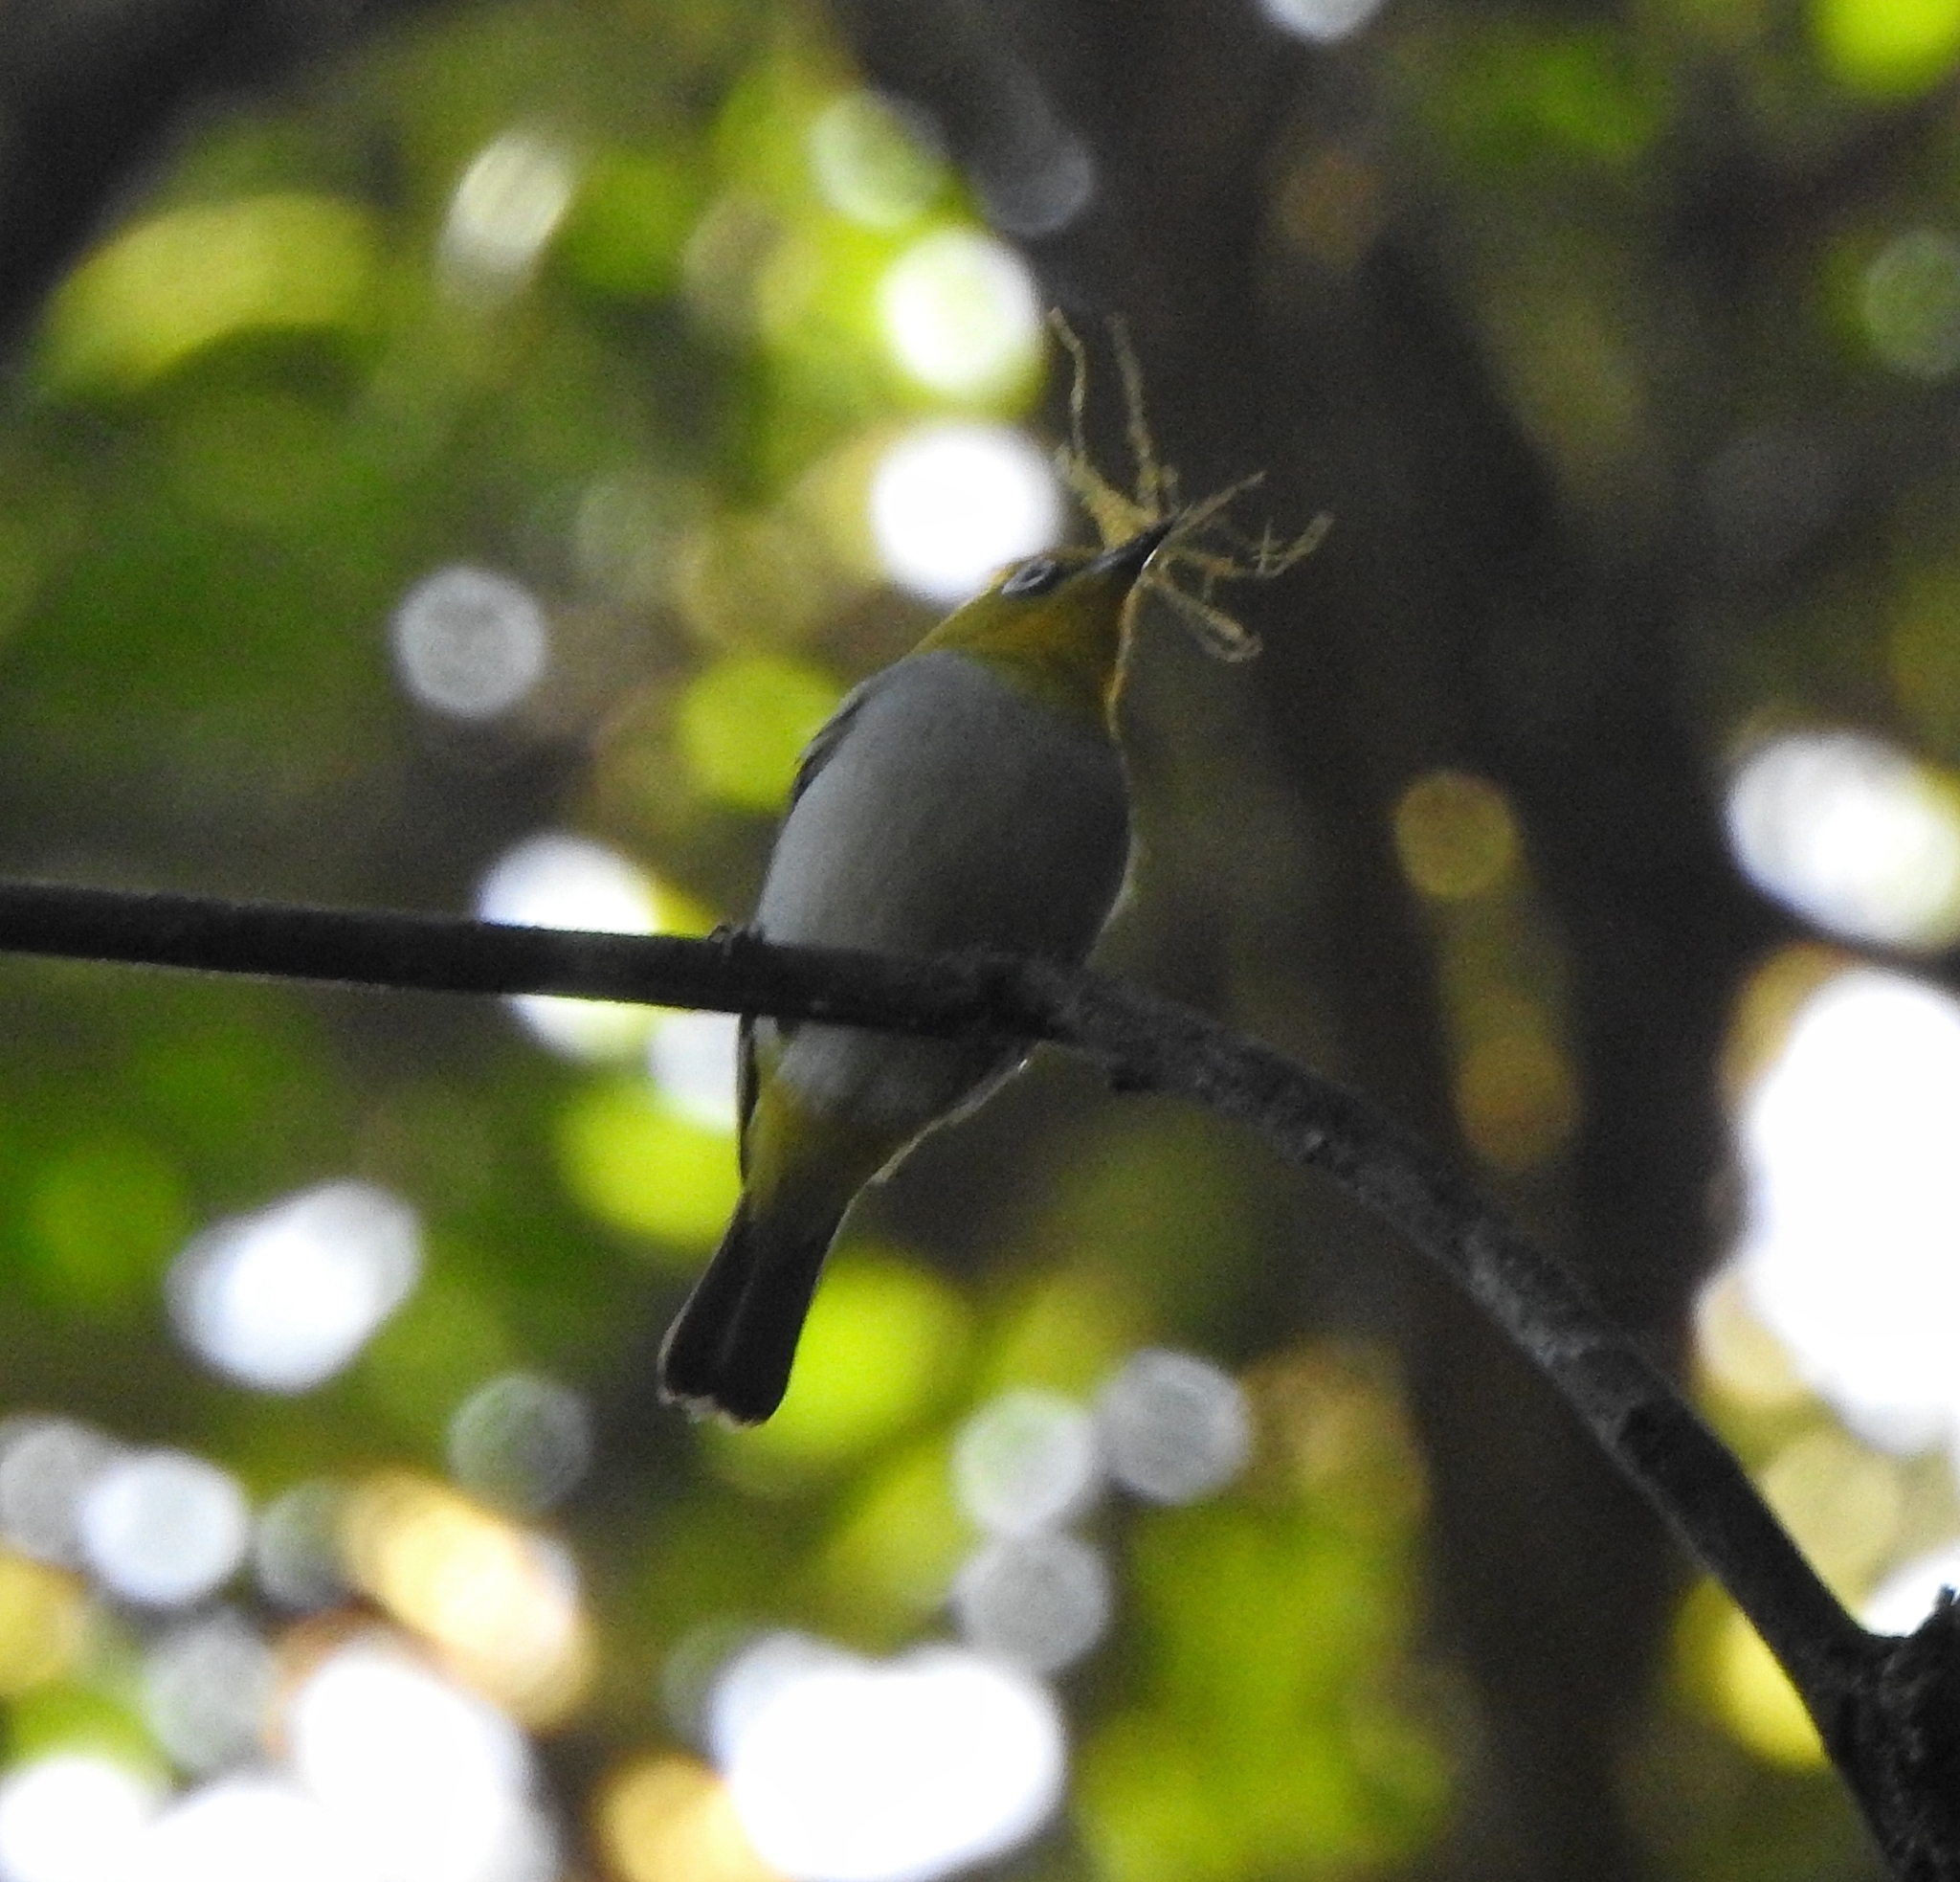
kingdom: Animalia
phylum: Chordata
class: Aves
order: Passeriformes
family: Zosteropidae
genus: Zosterops
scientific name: Zosterops palpebrosus
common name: Oriental white-eye
